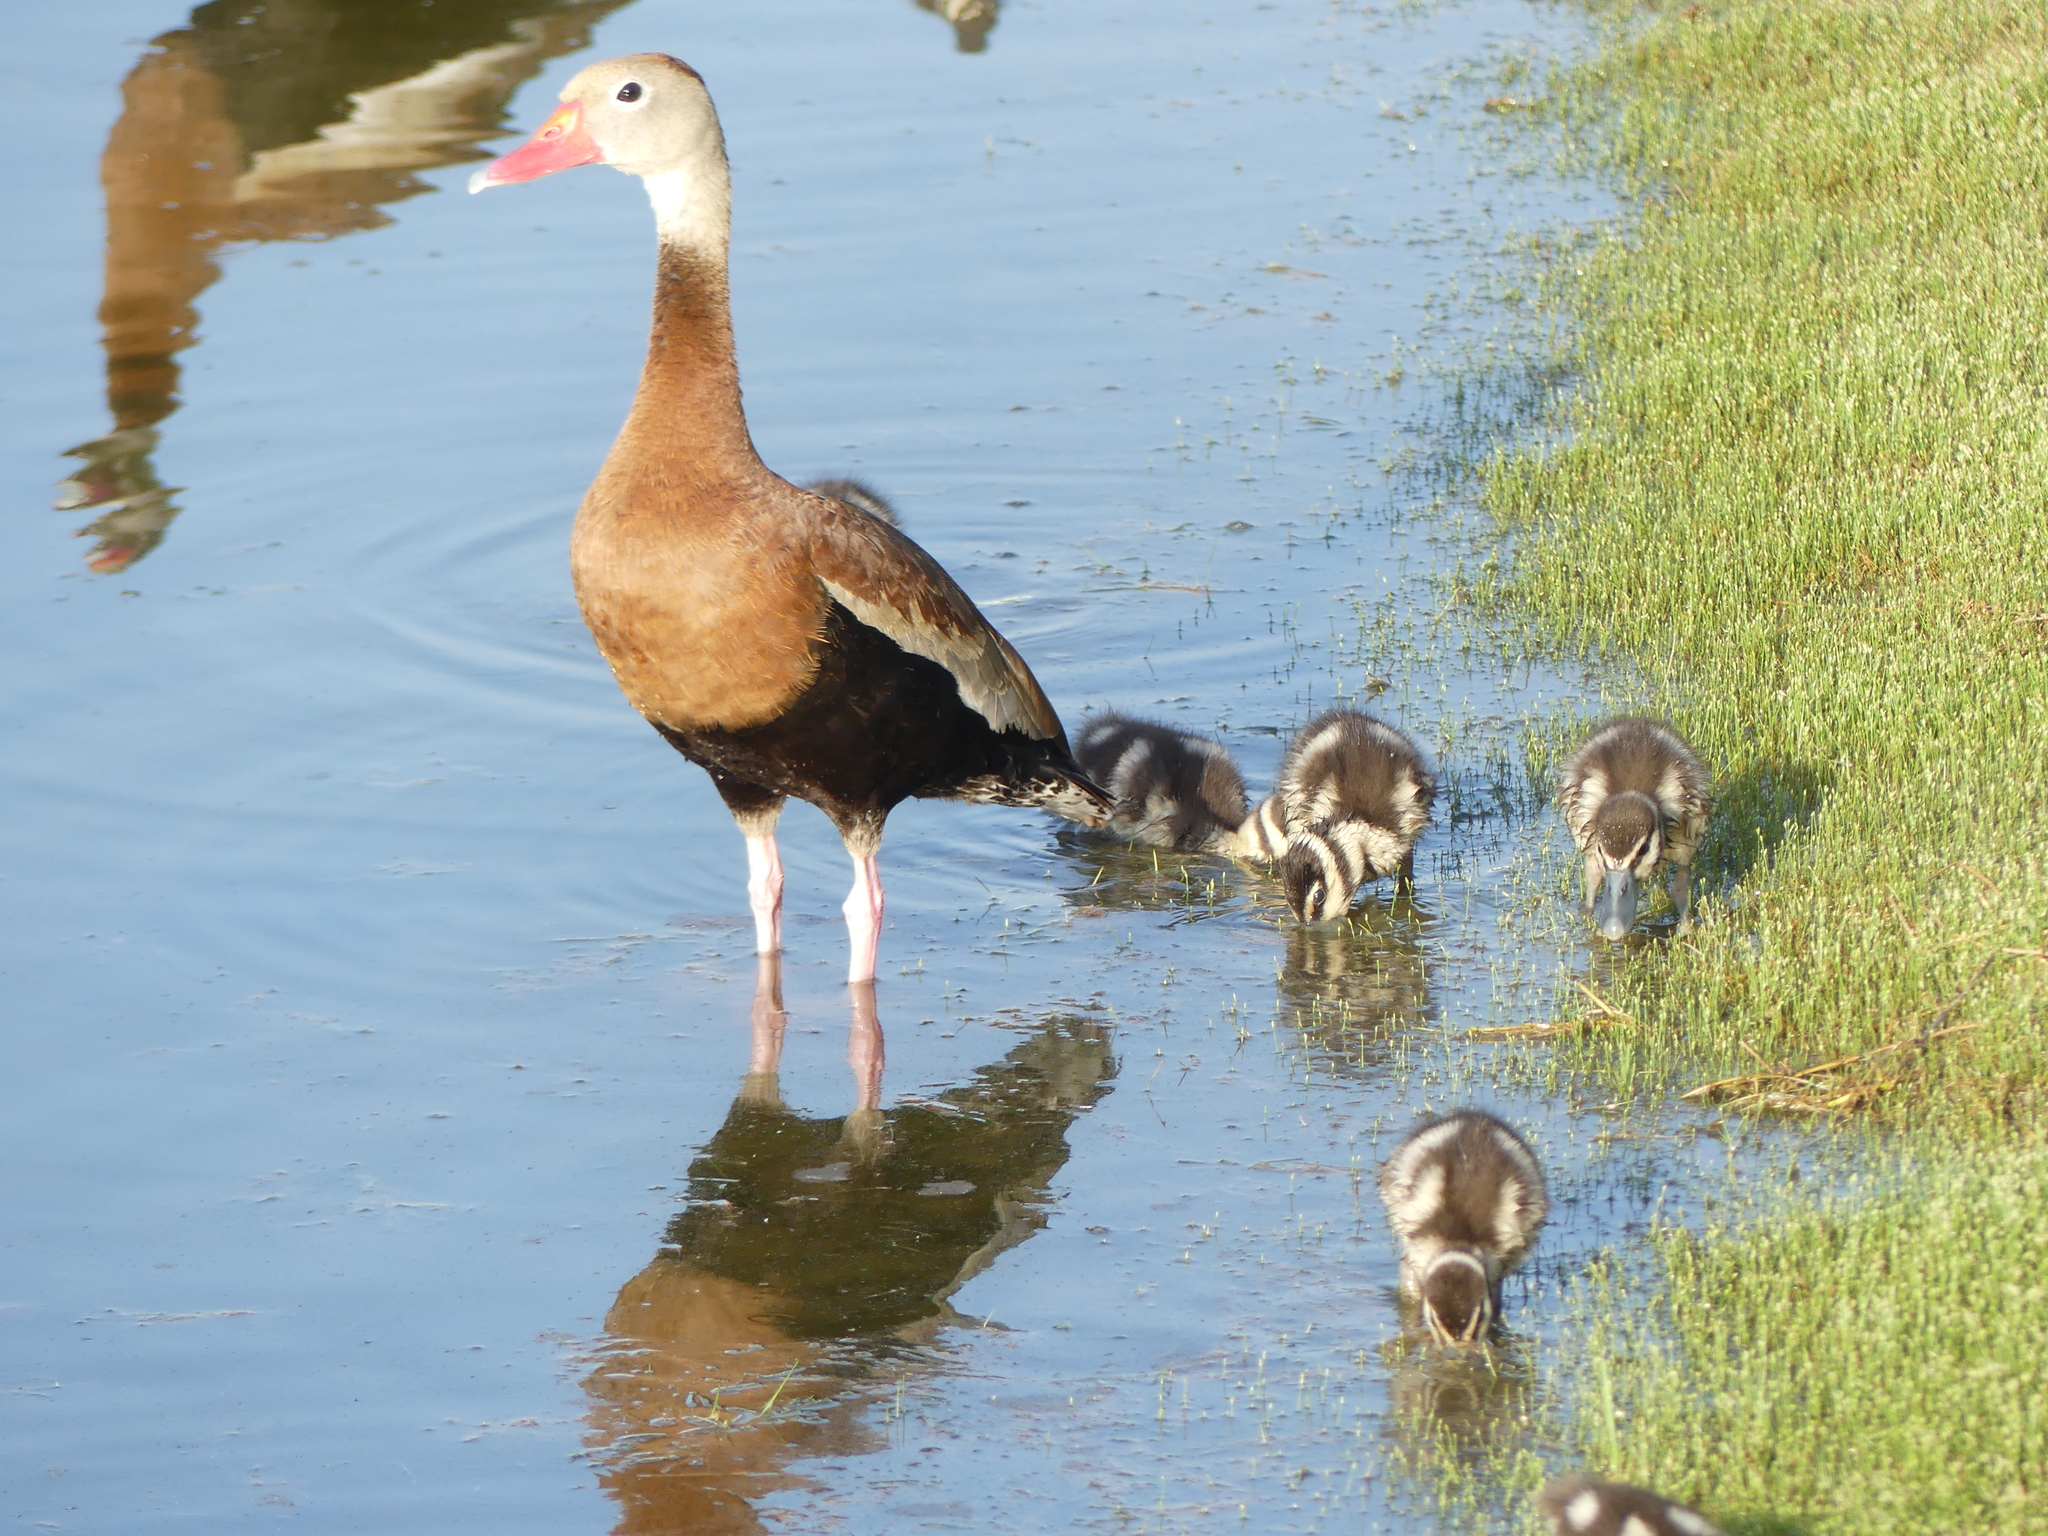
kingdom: Animalia
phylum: Chordata
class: Aves
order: Anseriformes
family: Anatidae
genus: Dendrocygna
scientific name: Dendrocygna autumnalis
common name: Black-bellied whistling duck
